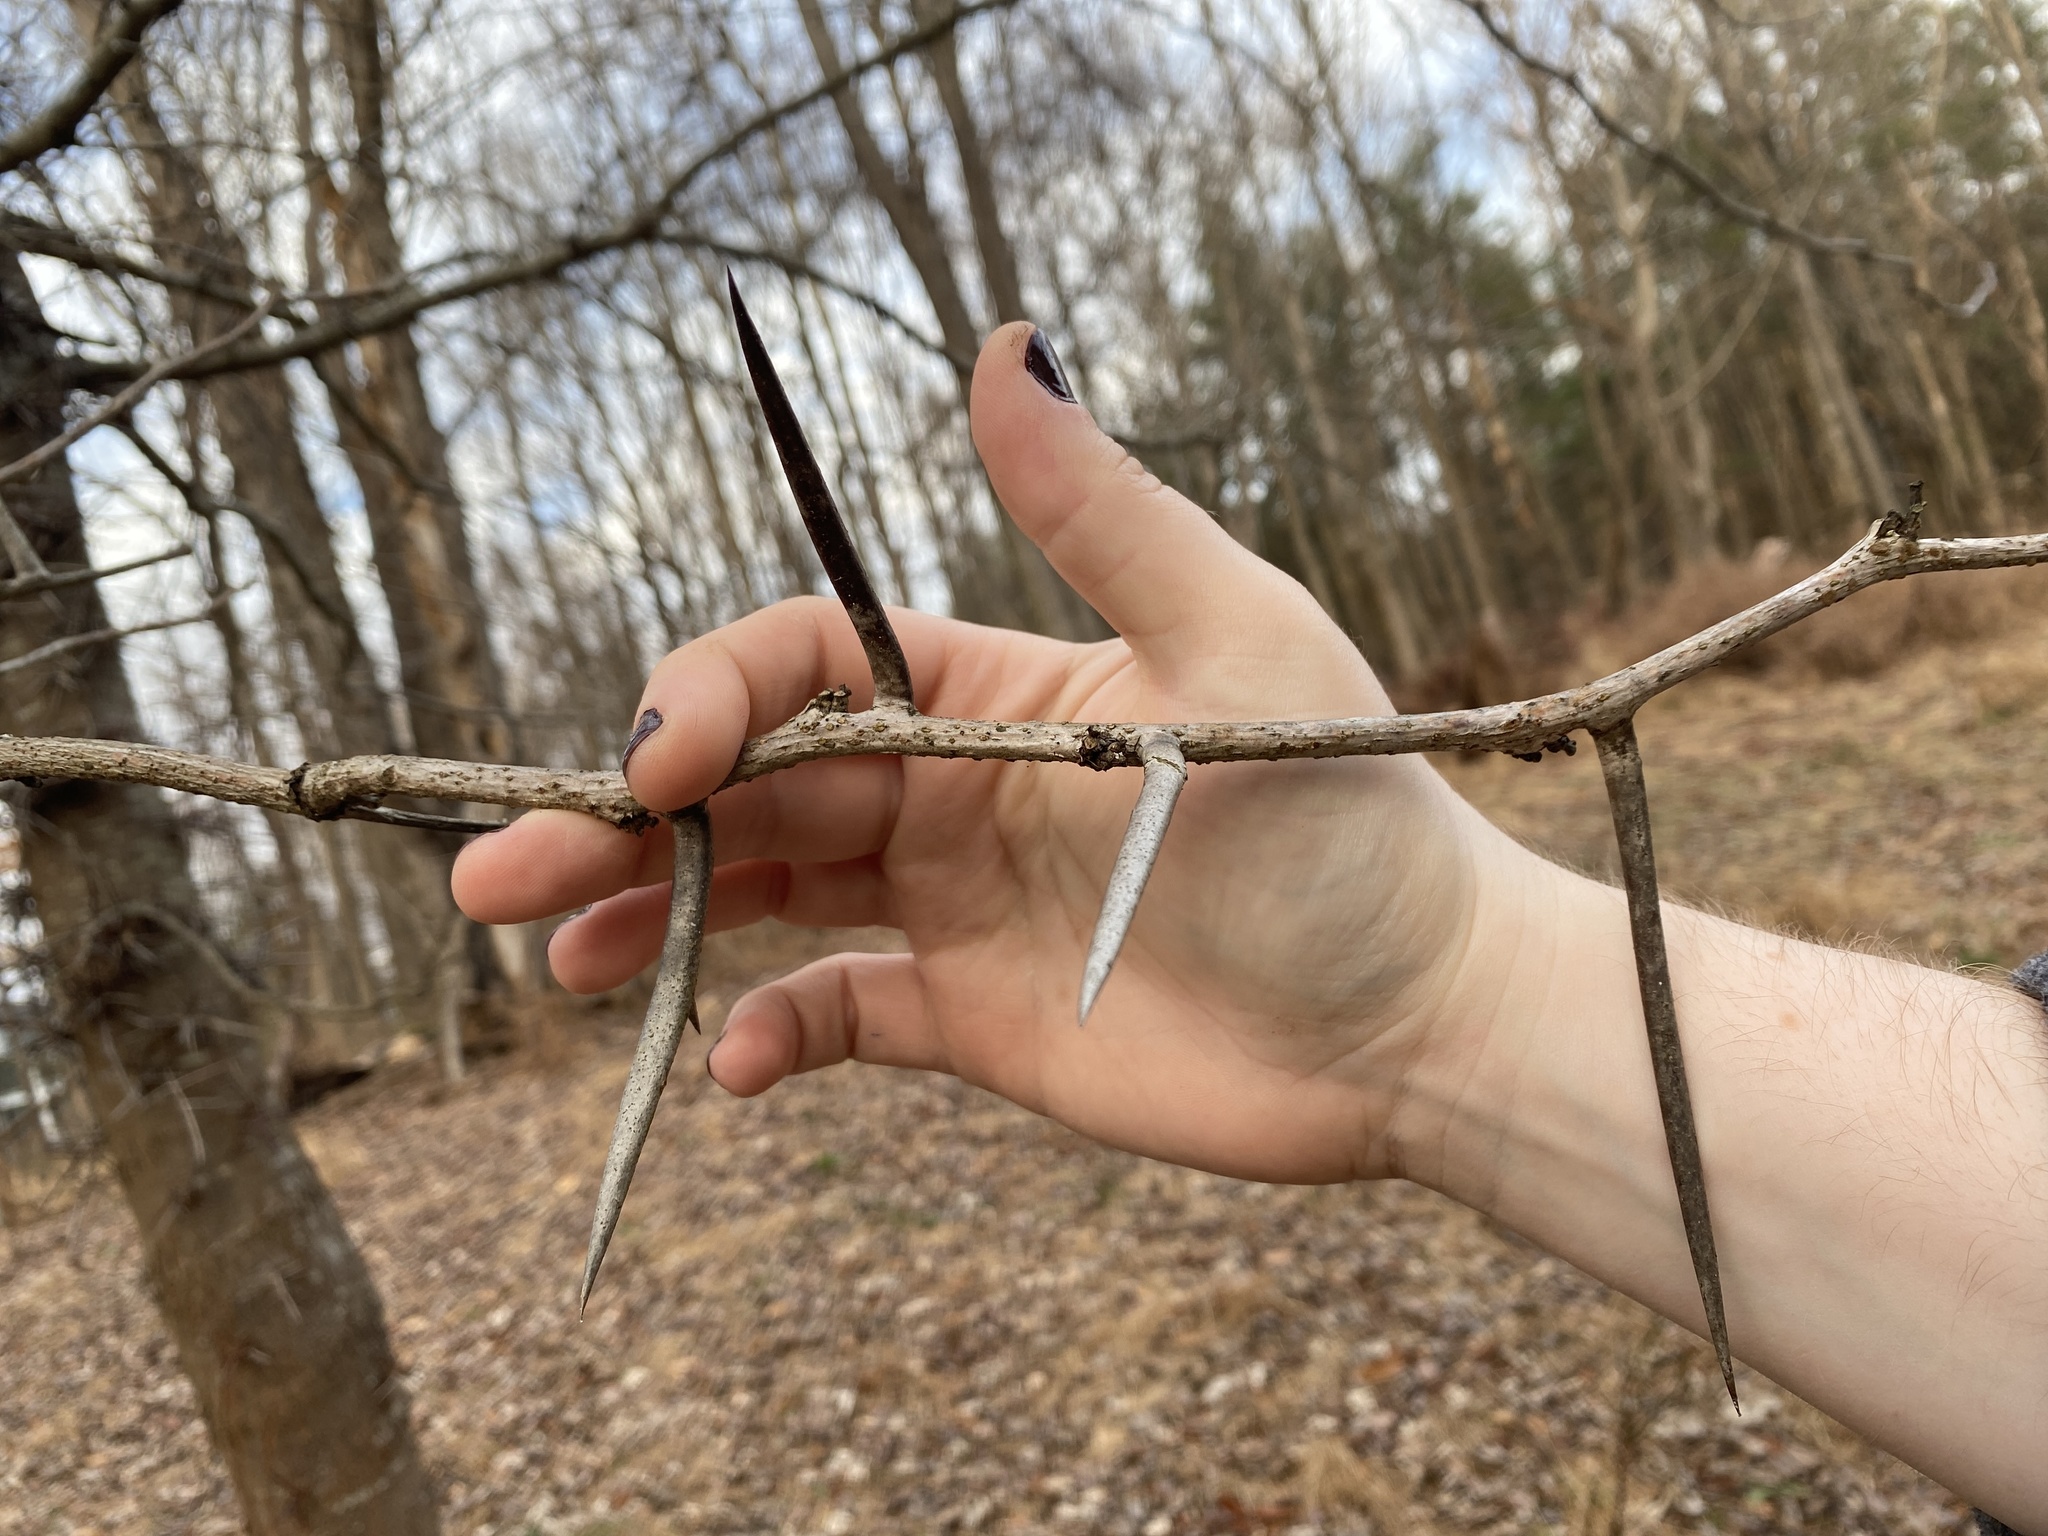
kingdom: Plantae
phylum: Tracheophyta
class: Magnoliopsida
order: Fabales
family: Fabaceae
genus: Gleditsia
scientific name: Gleditsia triacanthos
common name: Common honeylocust
